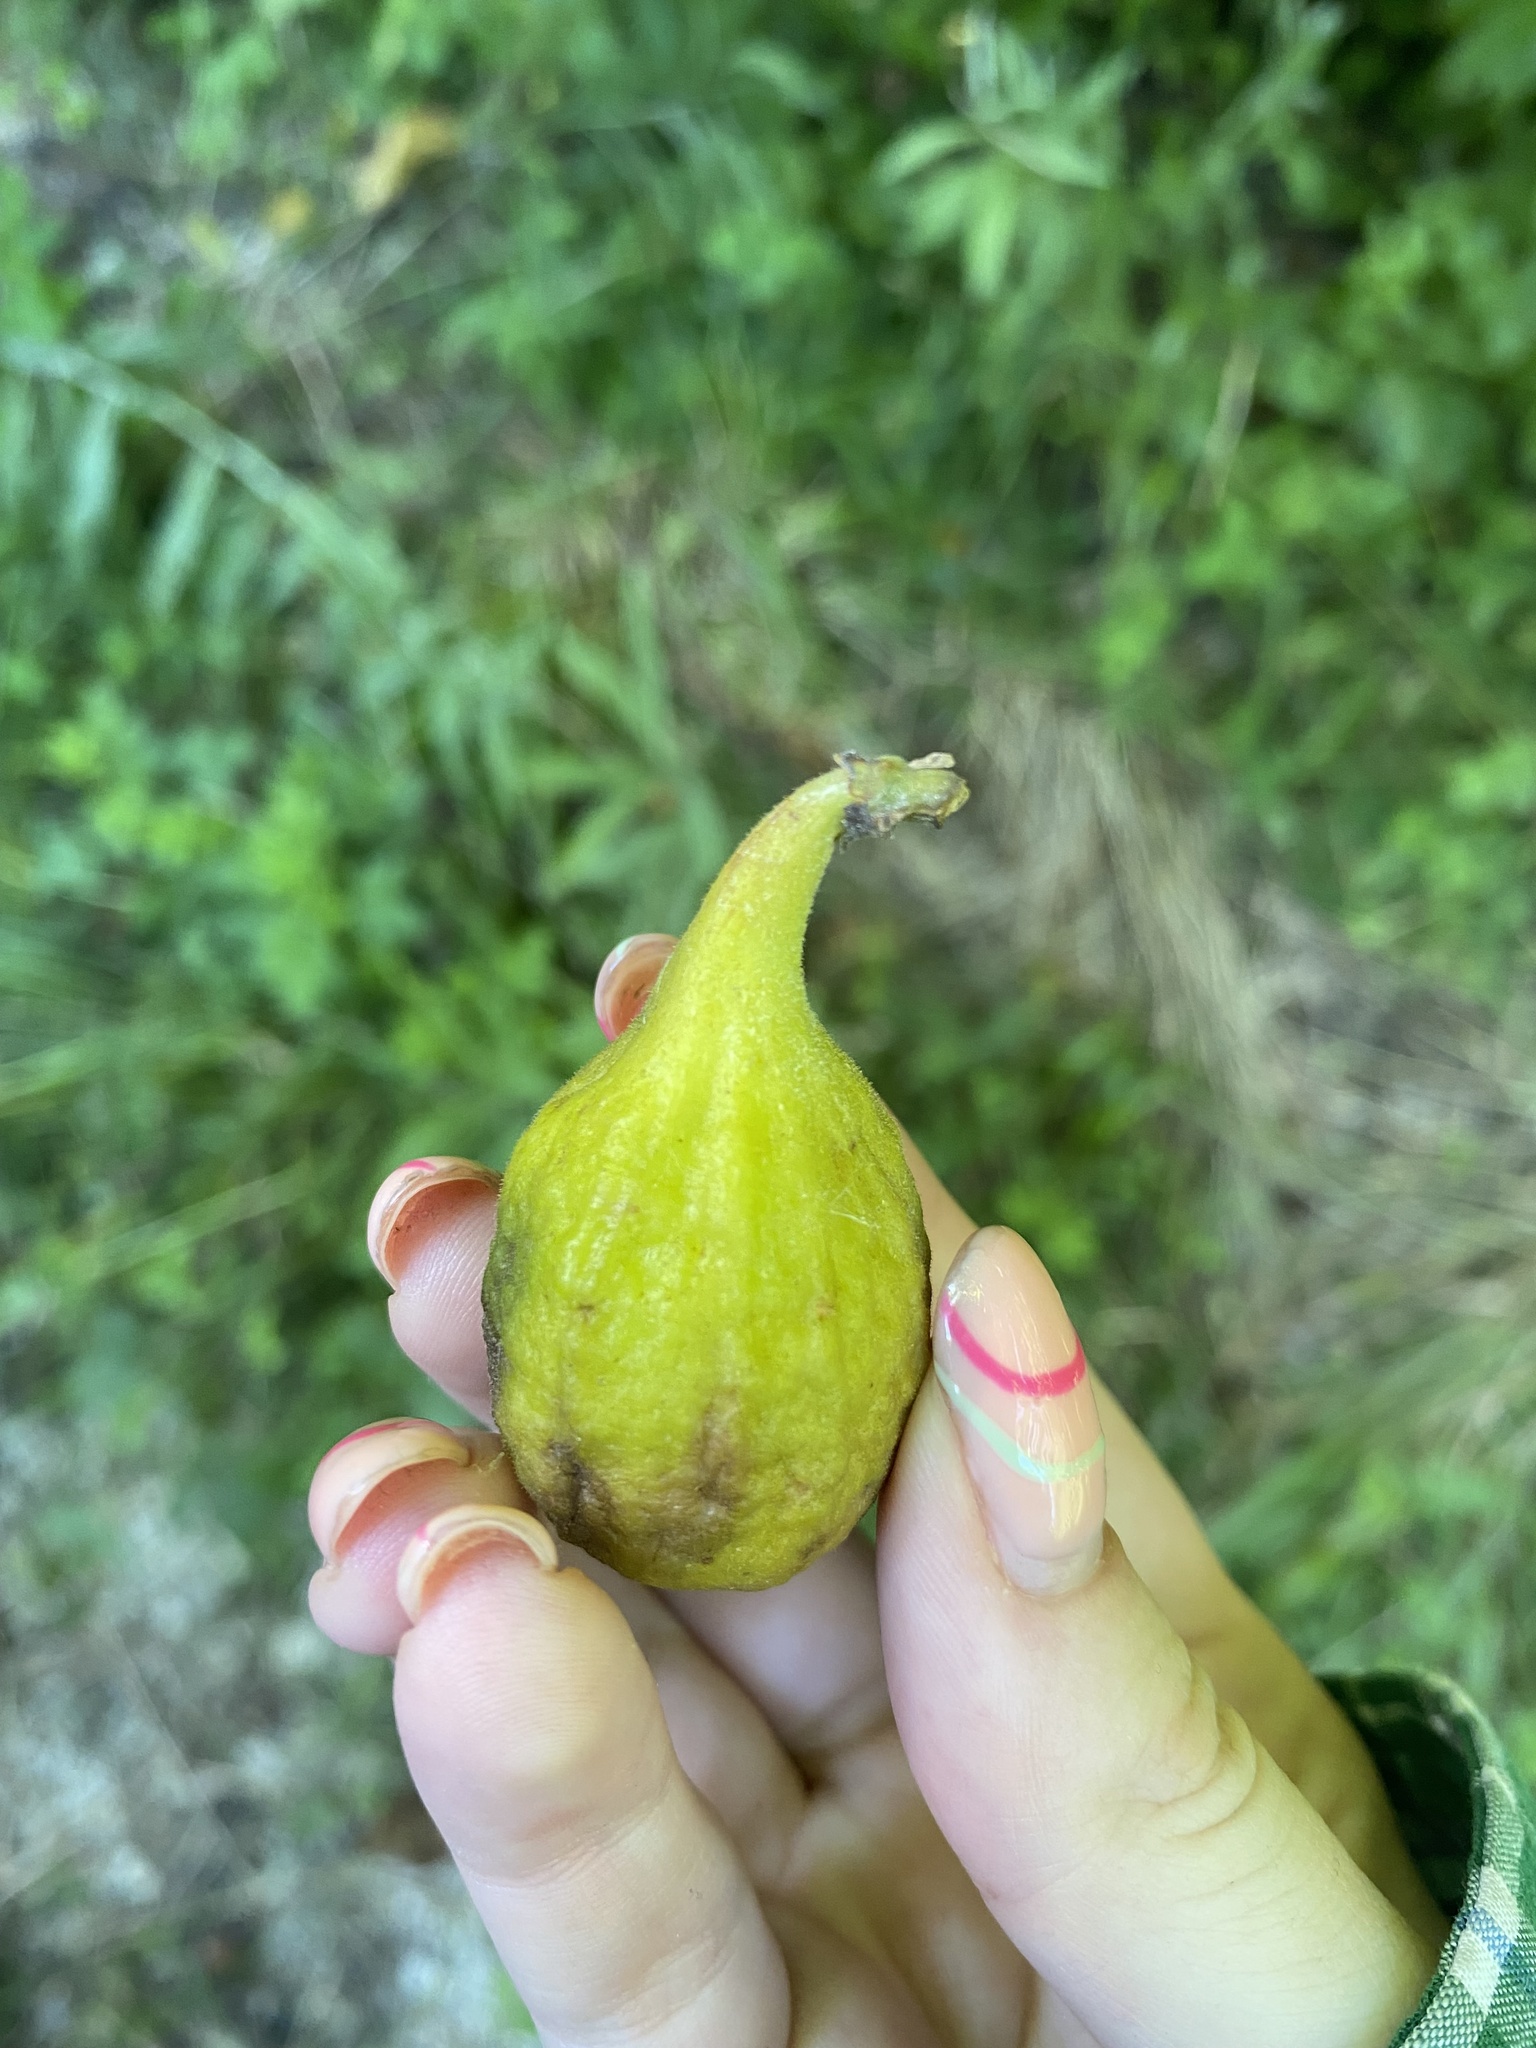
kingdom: Plantae
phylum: Tracheophyta
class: Magnoliopsida
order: Rosales
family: Moraceae
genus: Ficus
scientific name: Ficus carica
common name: Fig
